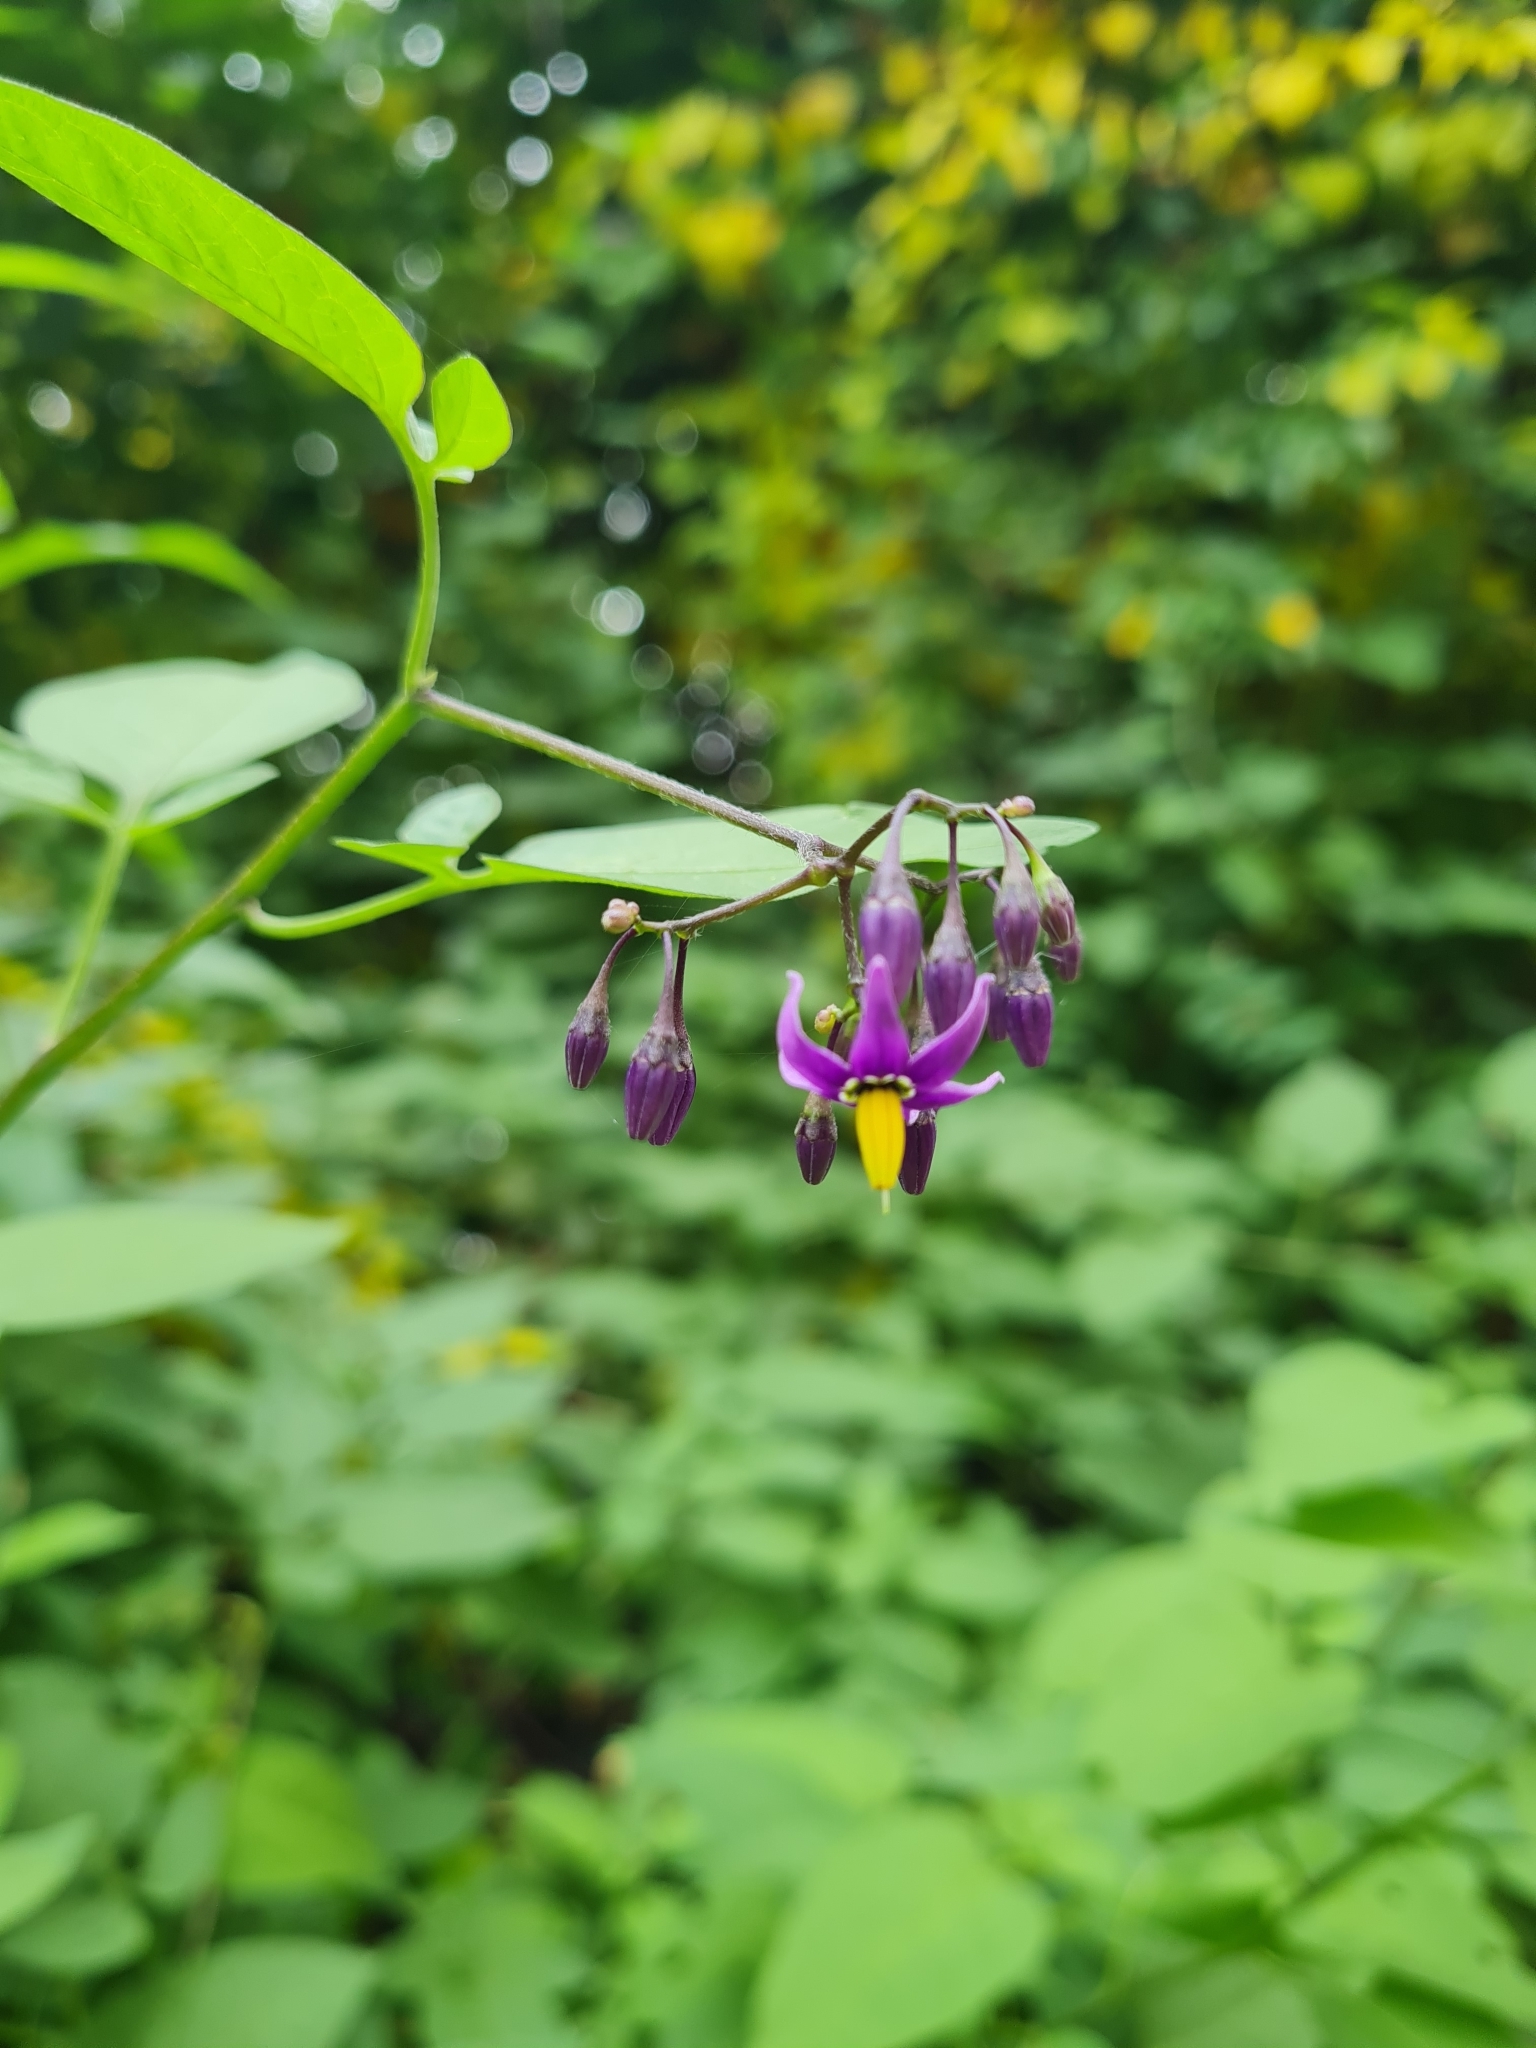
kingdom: Plantae
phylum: Tracheophyta
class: Magnoliopsida
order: Solanales
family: Solanaceae
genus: Solanum
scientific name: Solanum dulcamara
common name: Climbing nightshade
